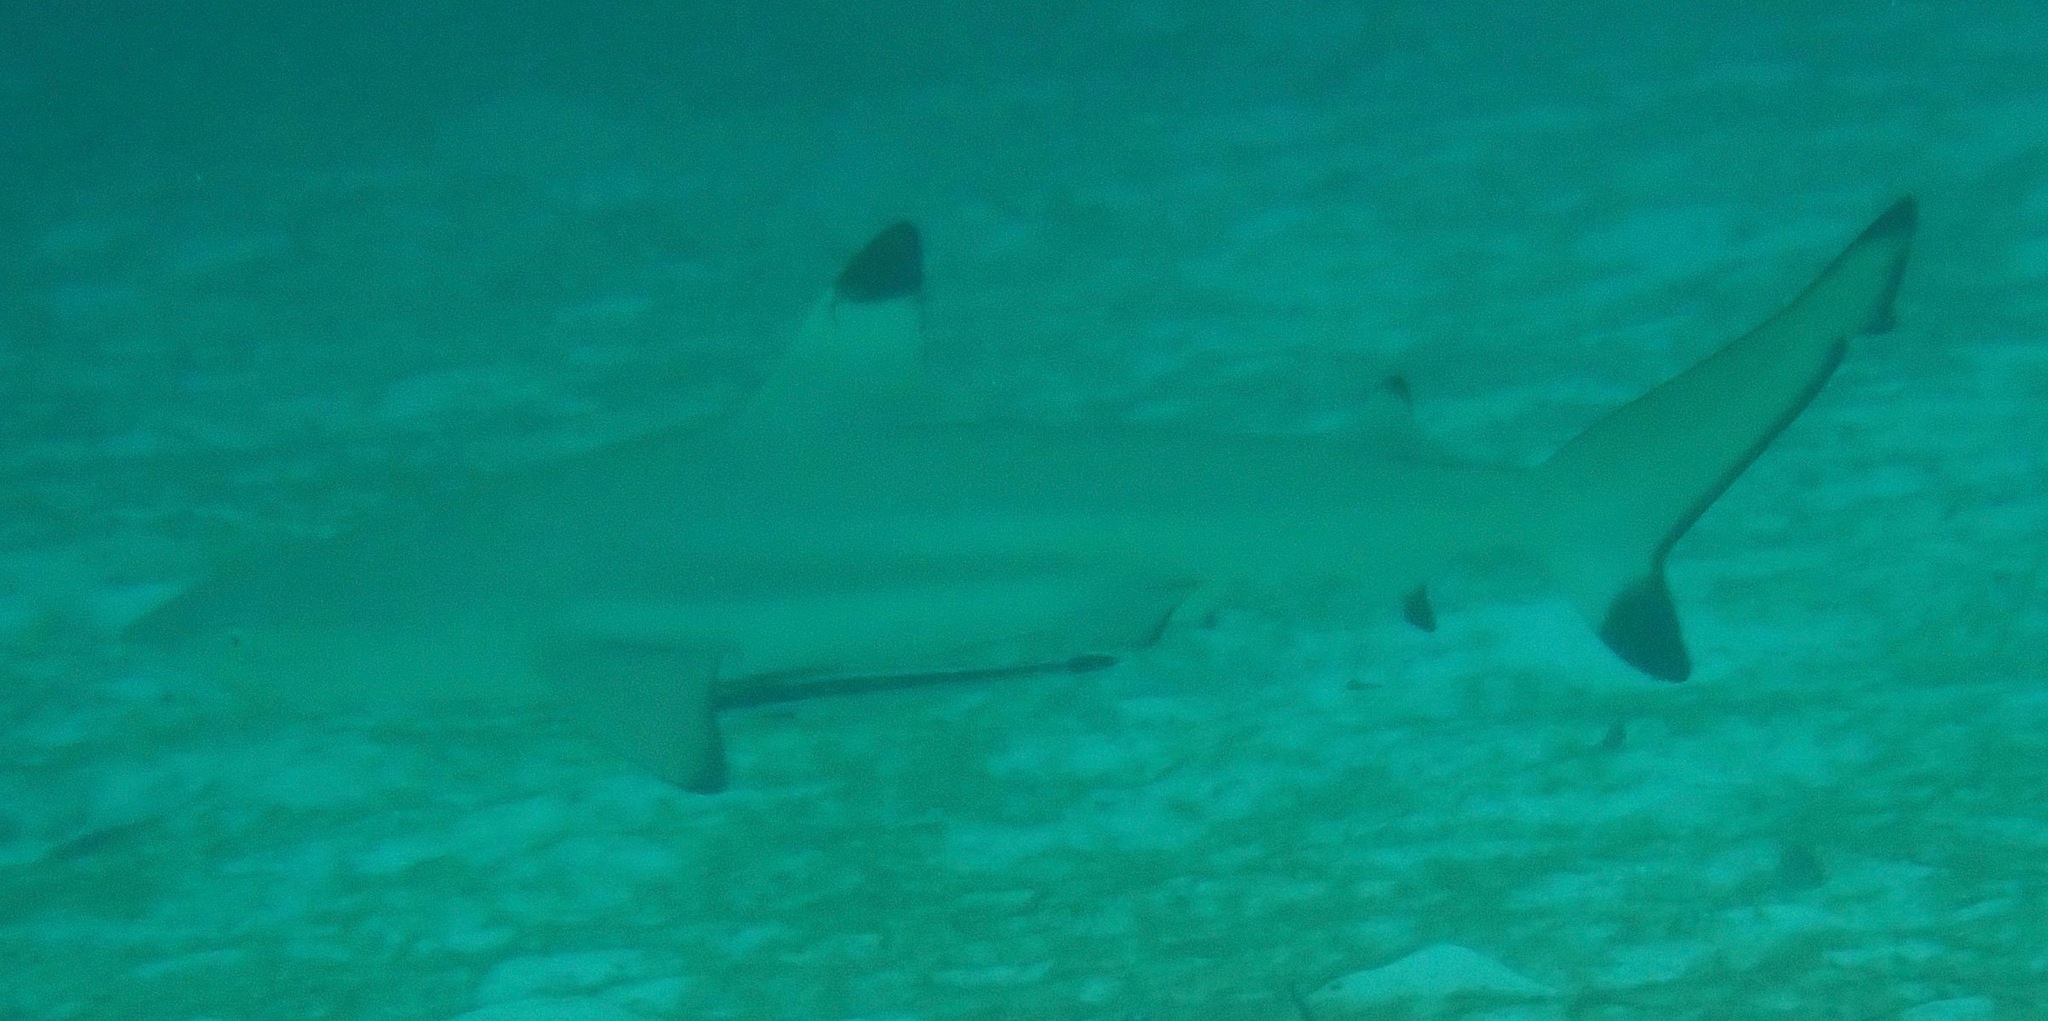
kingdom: Animalia
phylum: Chordata
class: Elasmobranchii
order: Carcharhiniformes
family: Carcharhinidae
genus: Carcharhinus
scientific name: Carcharhinus melanopterus
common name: Blacktip reef shark
